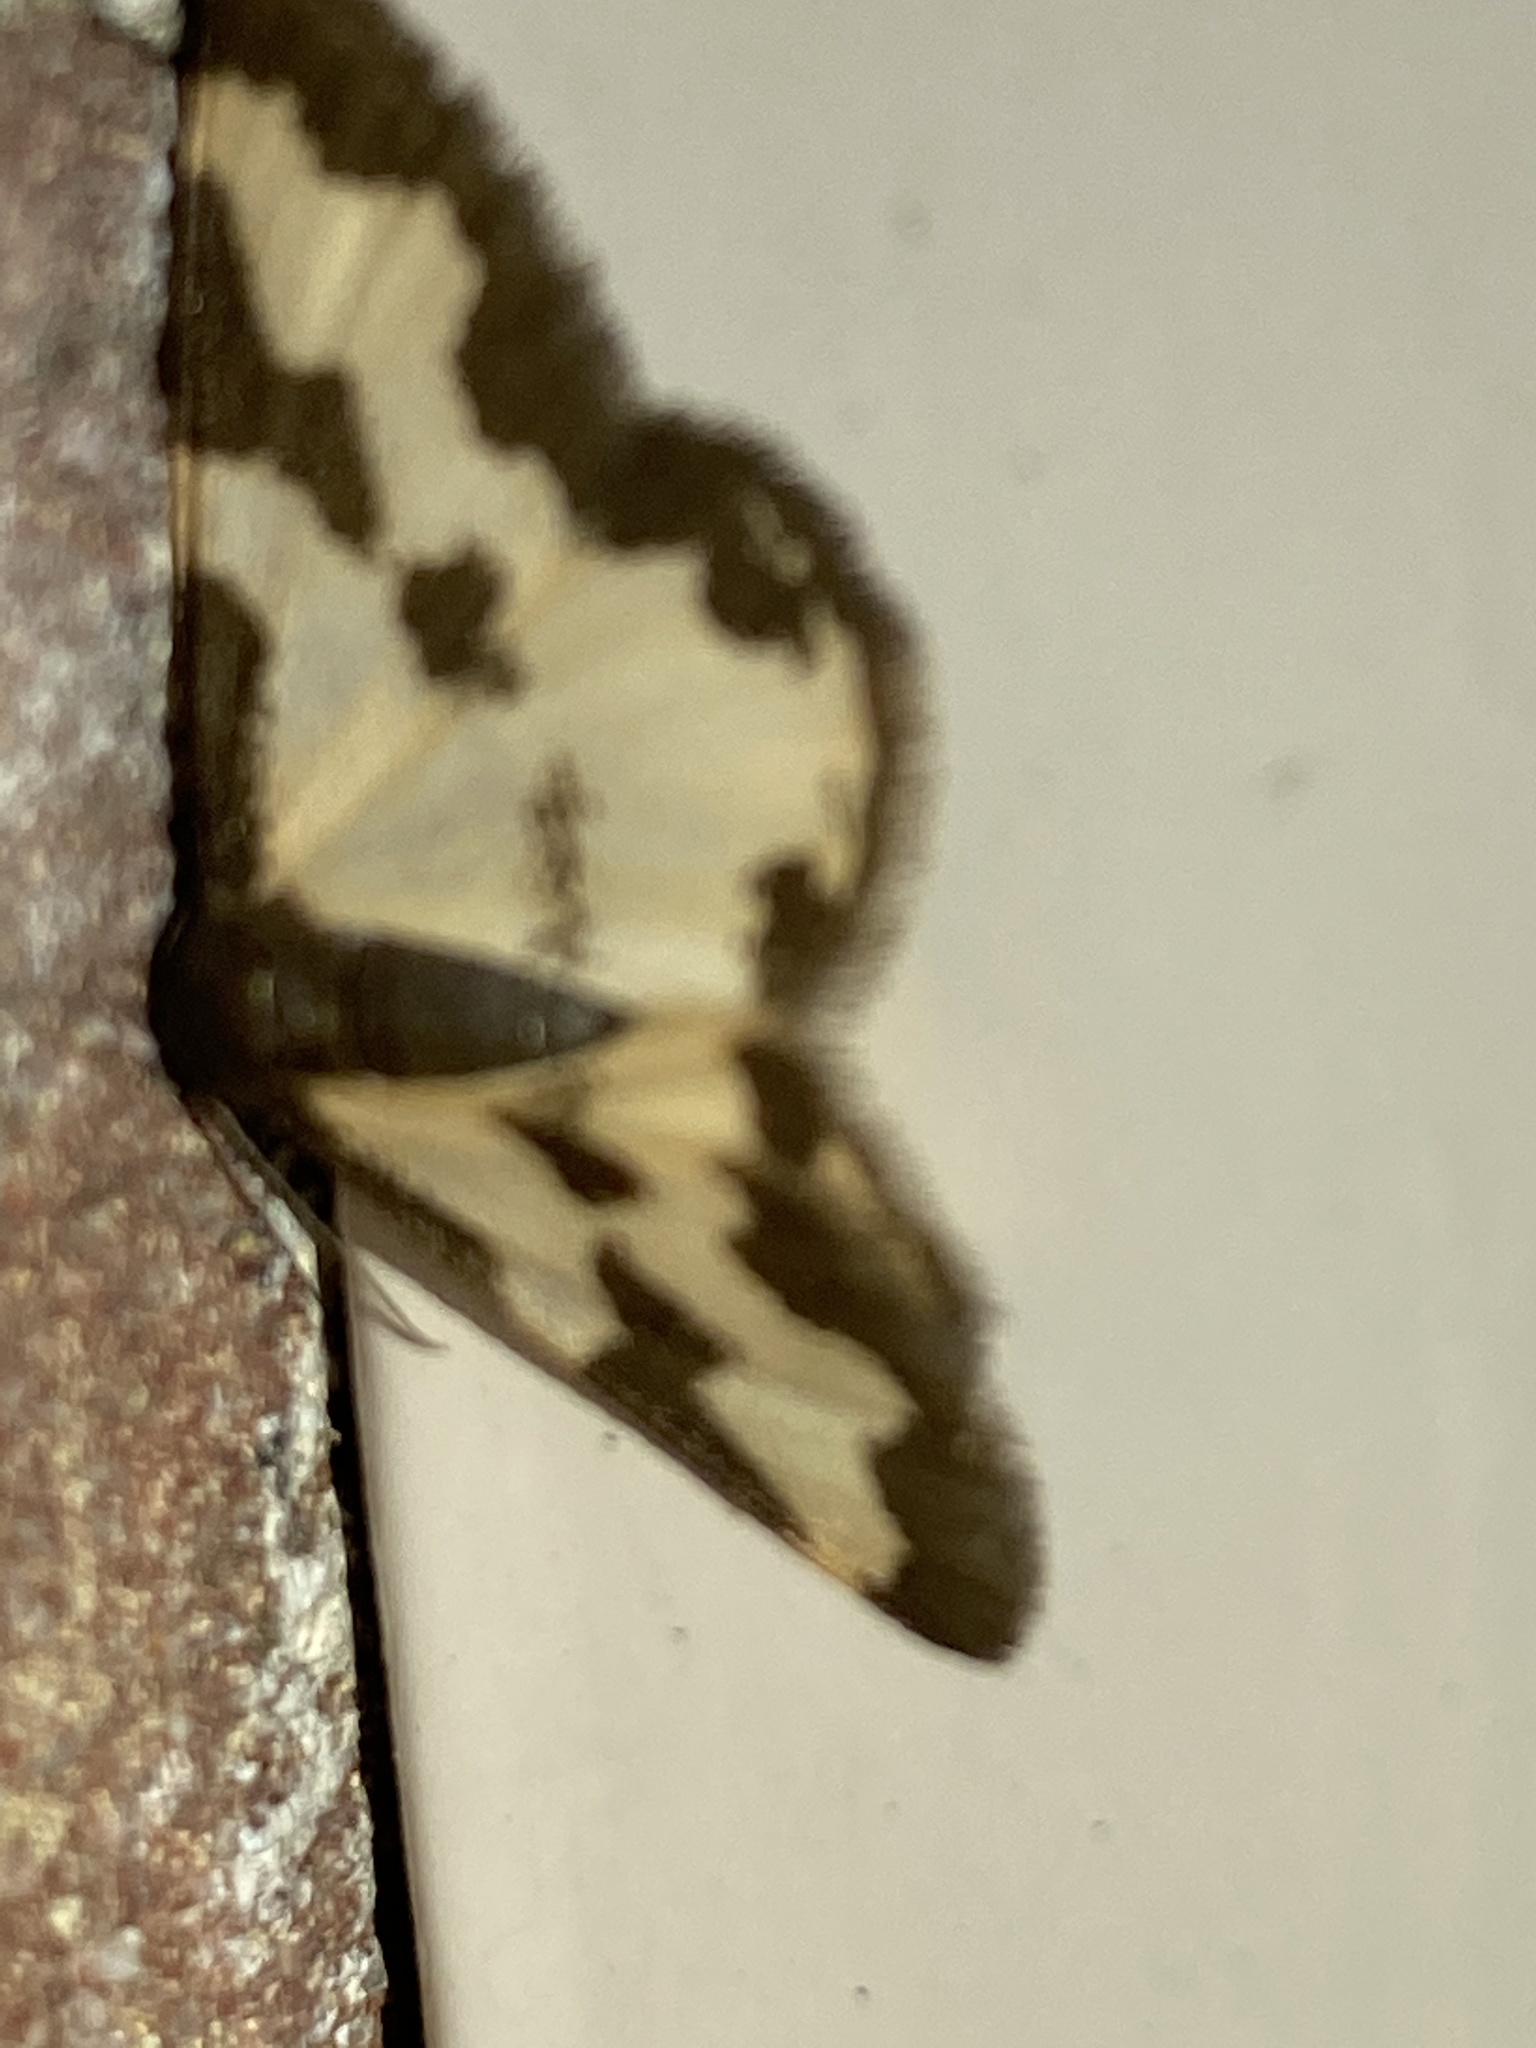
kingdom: Animalia
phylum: Arthropoda
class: Insecta
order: Lepidoptera
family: Geometridae
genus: Lomaspilis
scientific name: Lomaspilis marginata
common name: Clouded border
